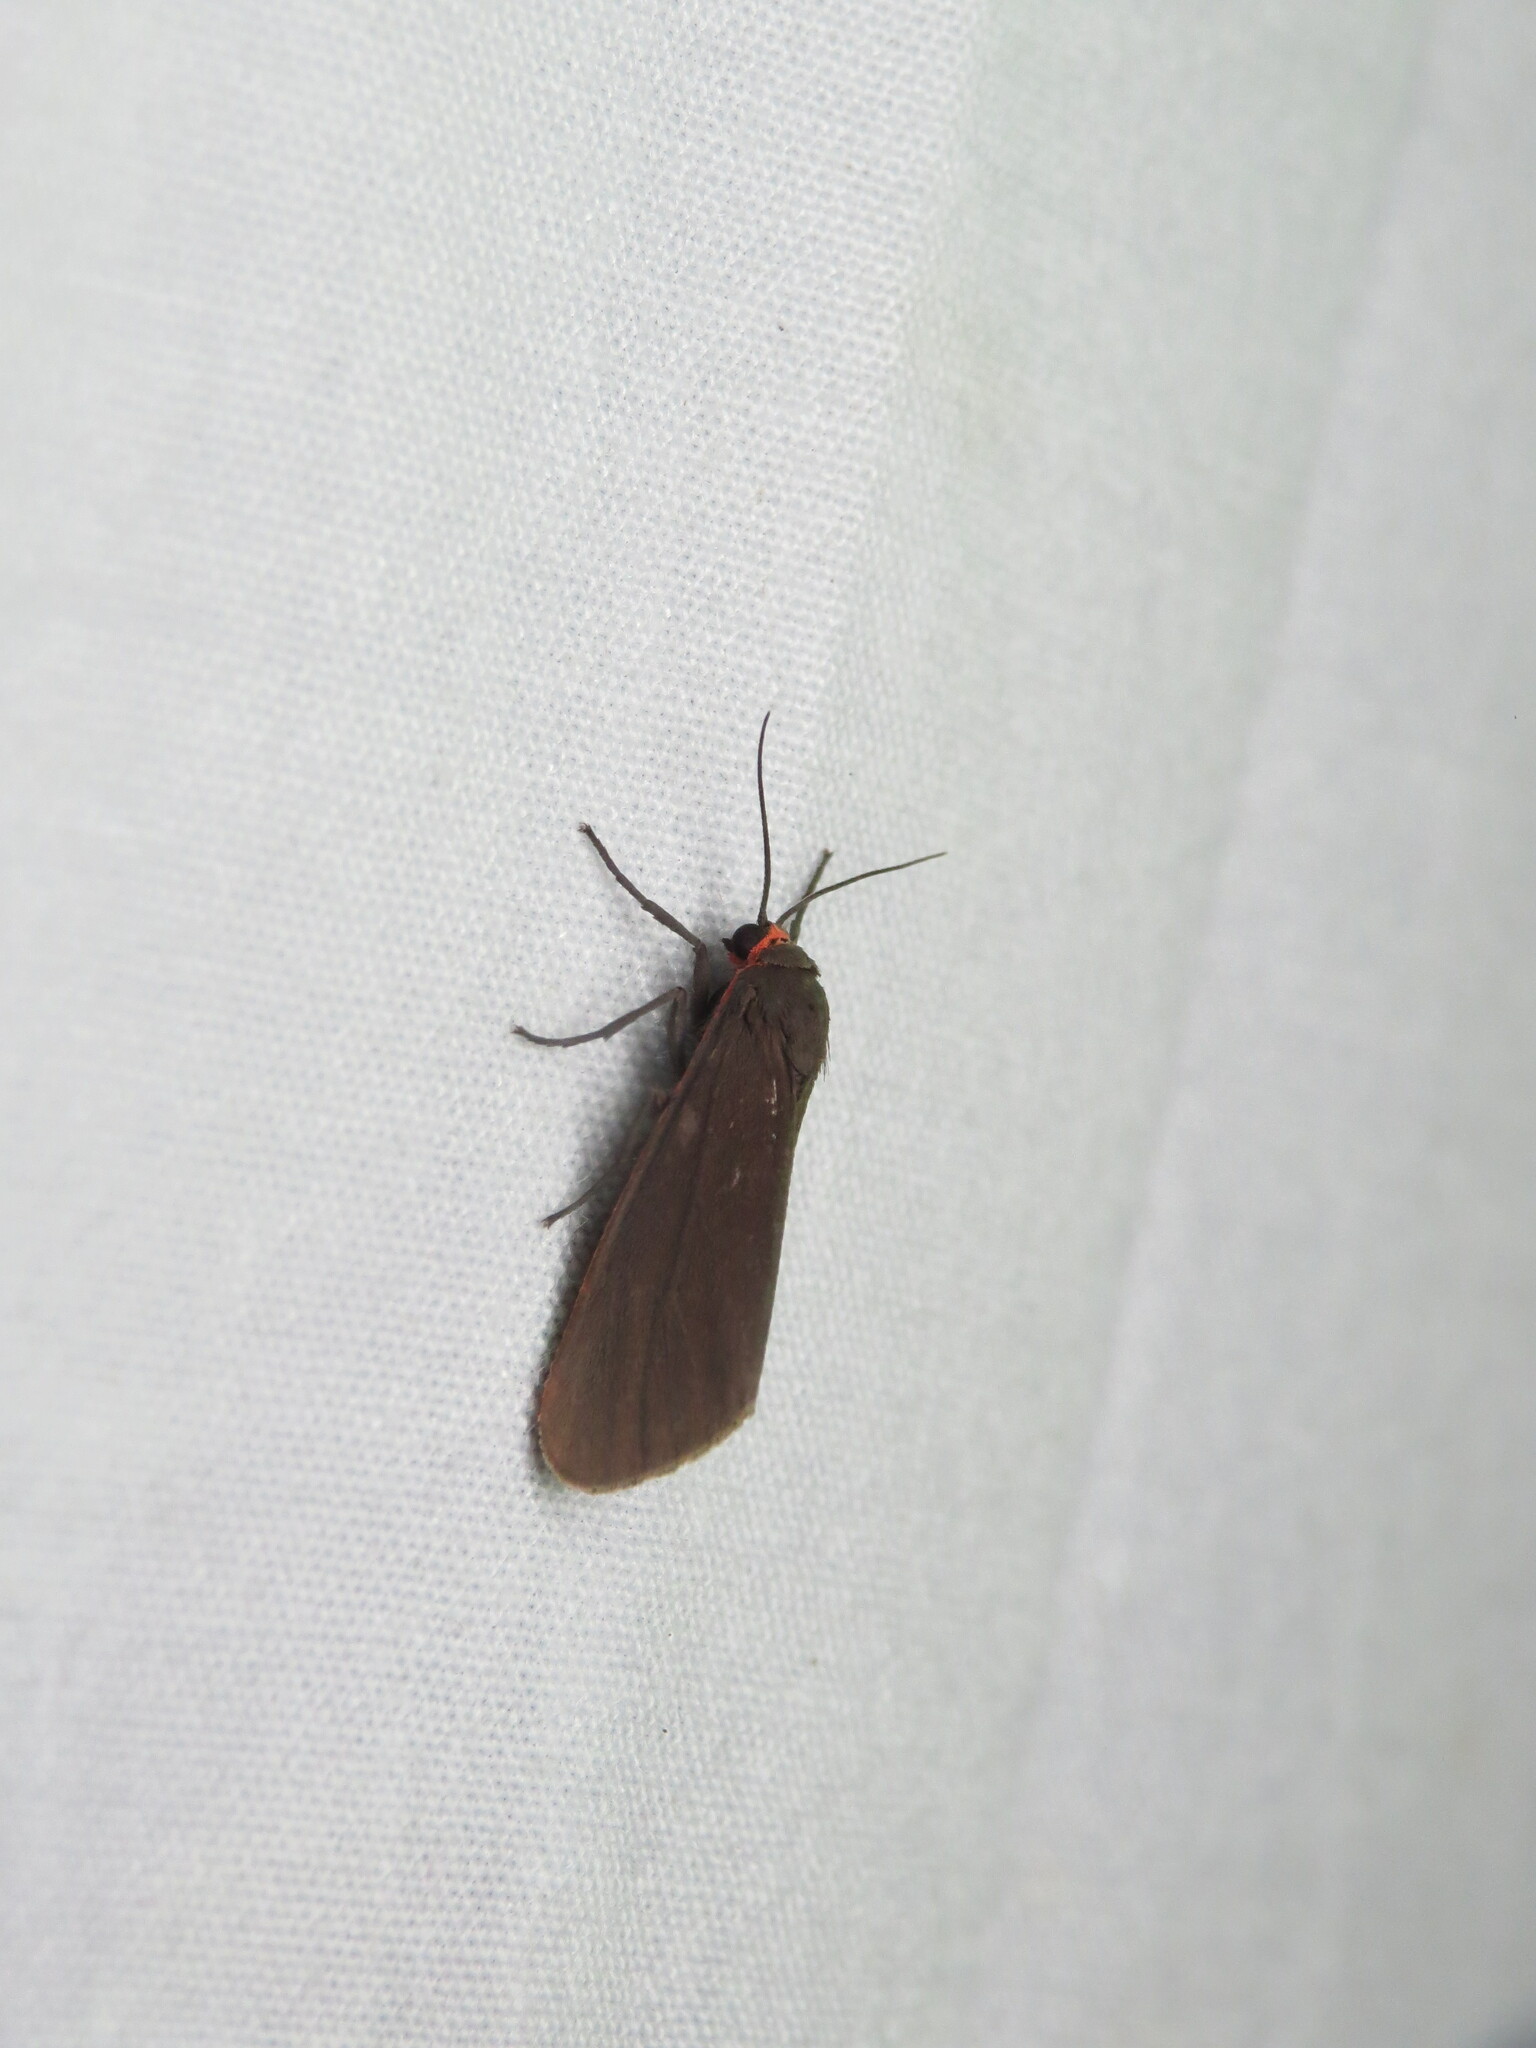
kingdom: Animalia
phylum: Arthropoda
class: Insecta
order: Lepidoptera
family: Erebidae
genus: Virbia
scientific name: Virbia laeta
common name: Joyful holomelina moth
